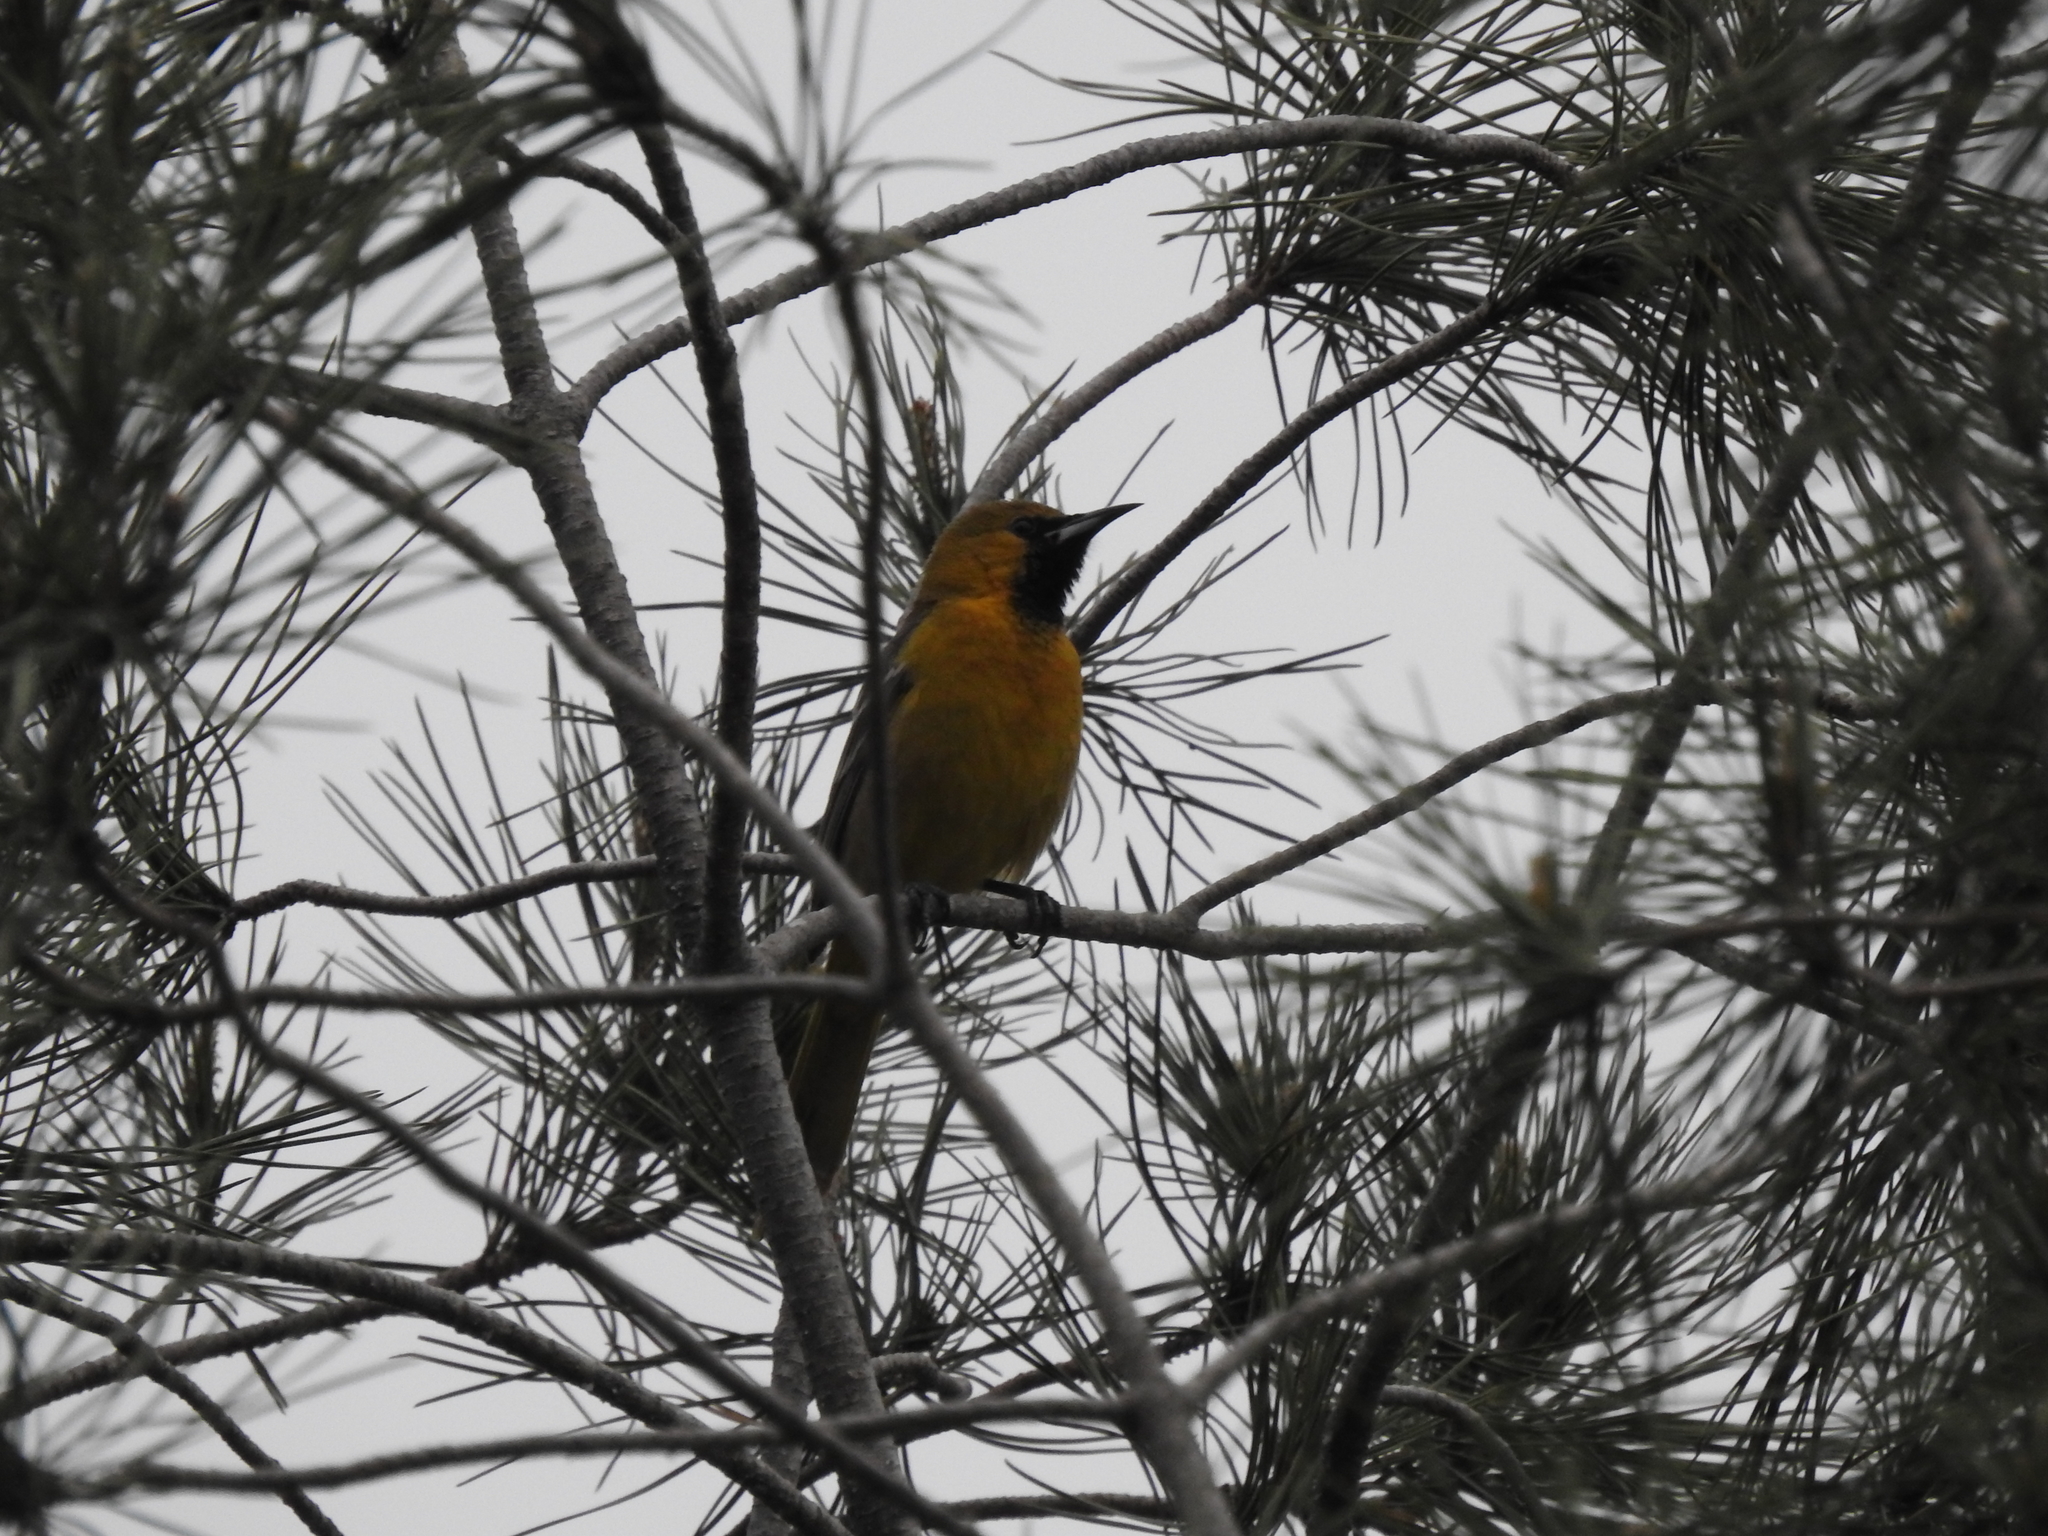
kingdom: Animalia
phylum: Chordata
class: Aves
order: Passeriformes
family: Icteridae
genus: Icterus
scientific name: Icterus cucullatus
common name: Hooded oriole
